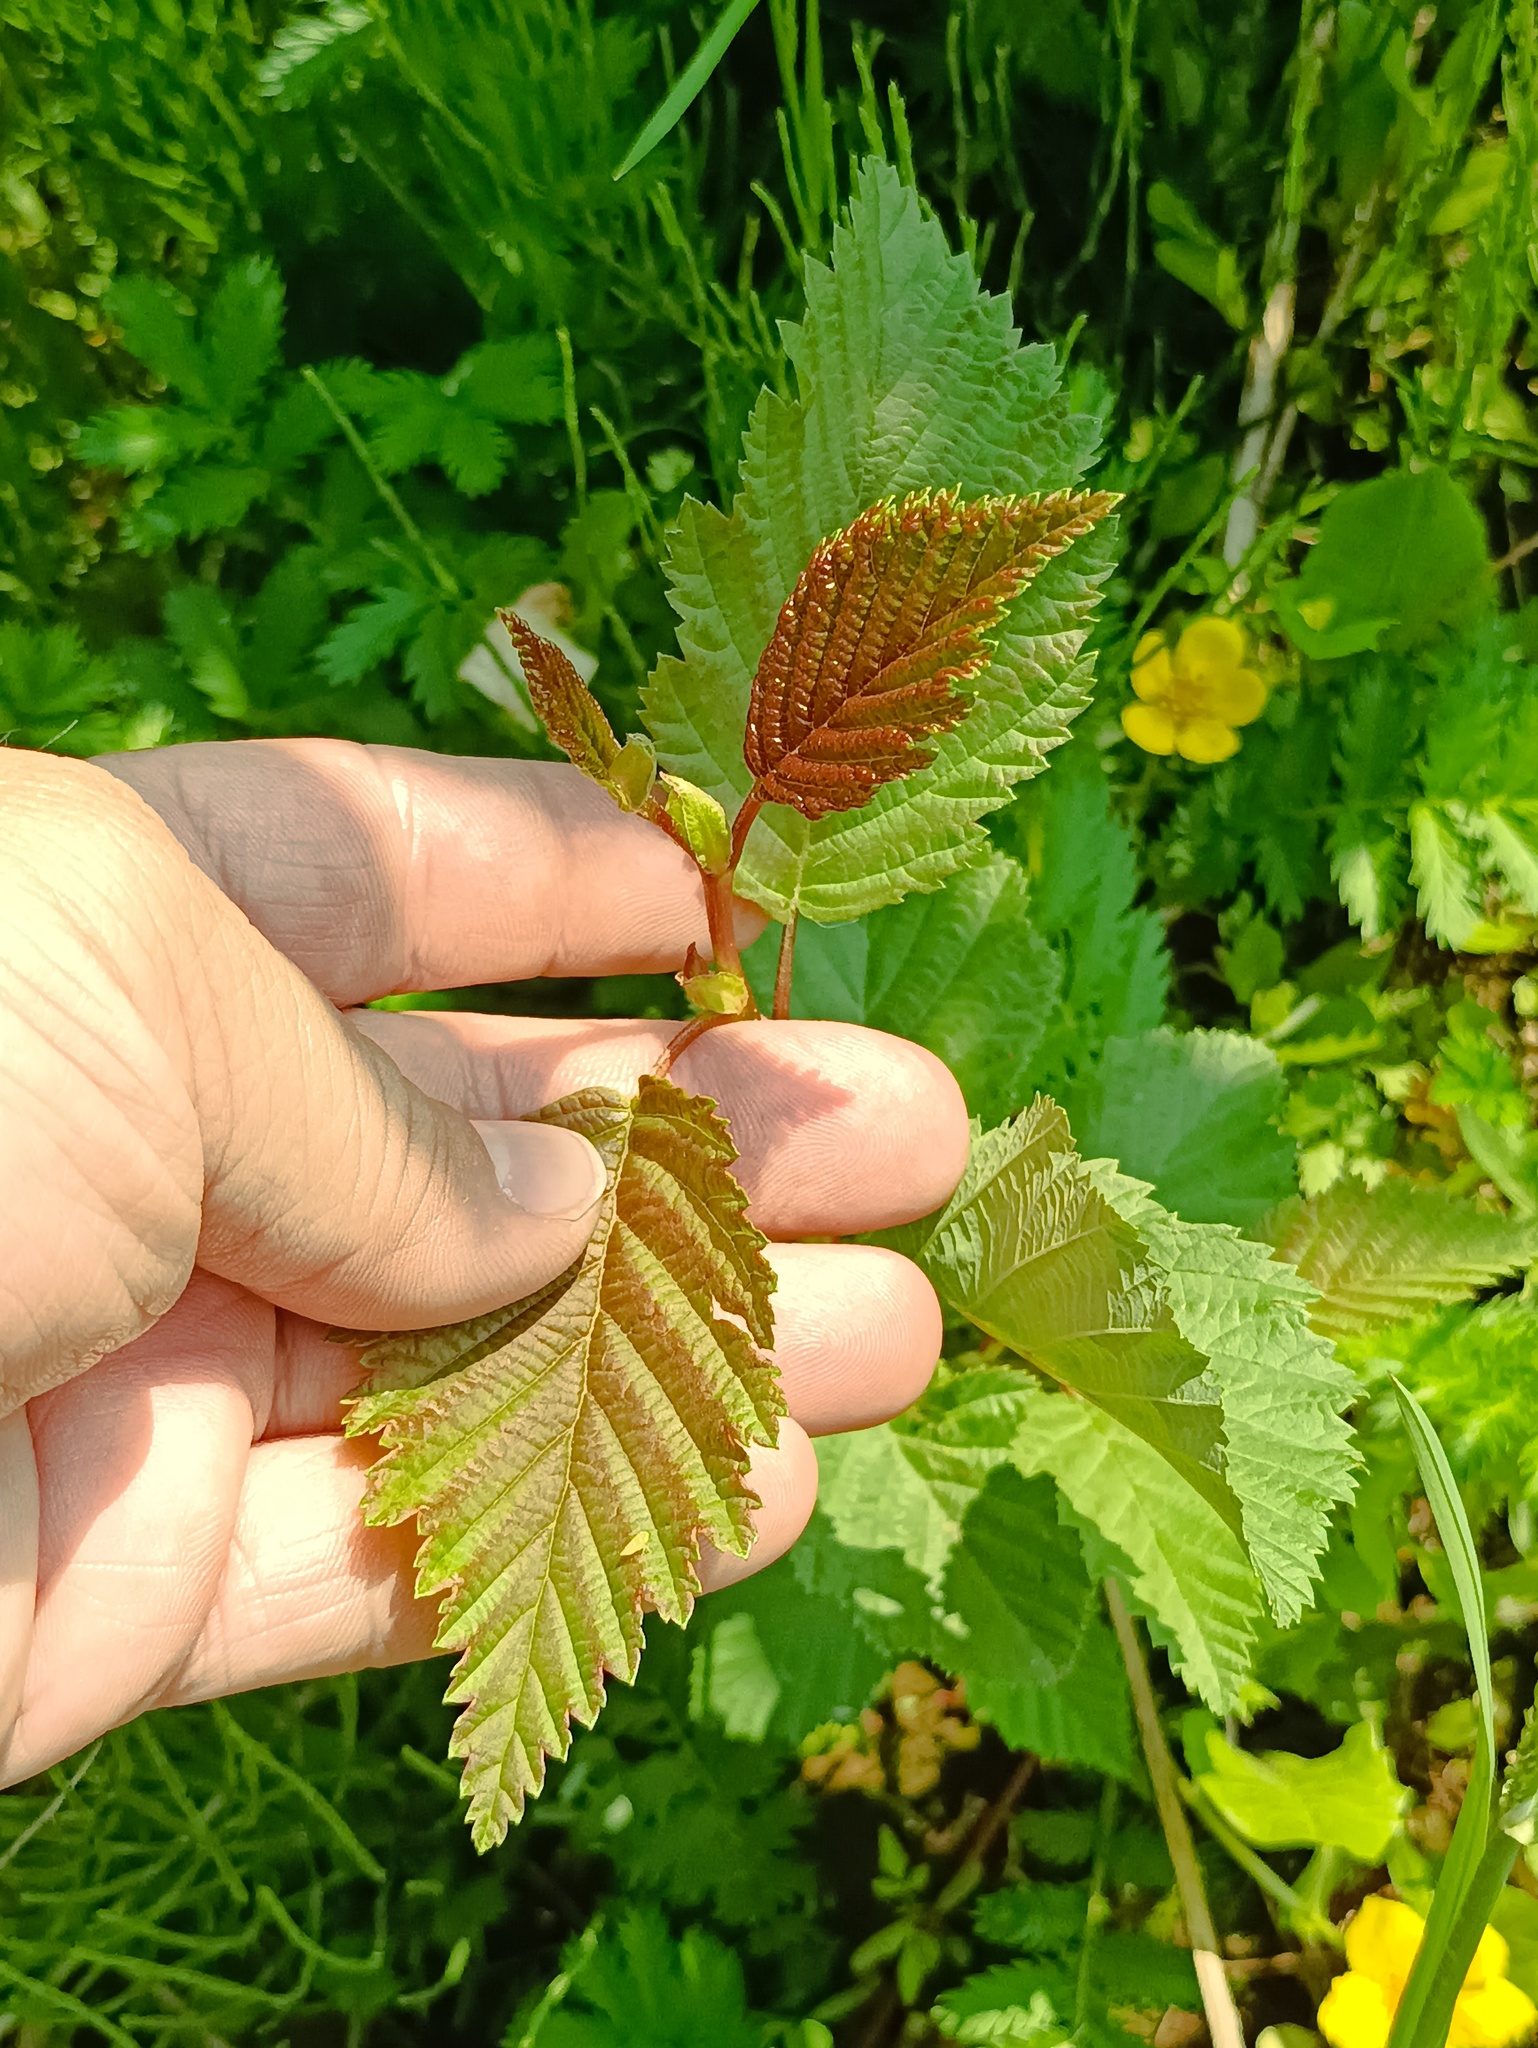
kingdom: Plantae
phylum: Tracheophyta
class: Magnoliopsida
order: Fagales
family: Betulaceae
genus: Alnus
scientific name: Alnus incana
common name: Grey alder
